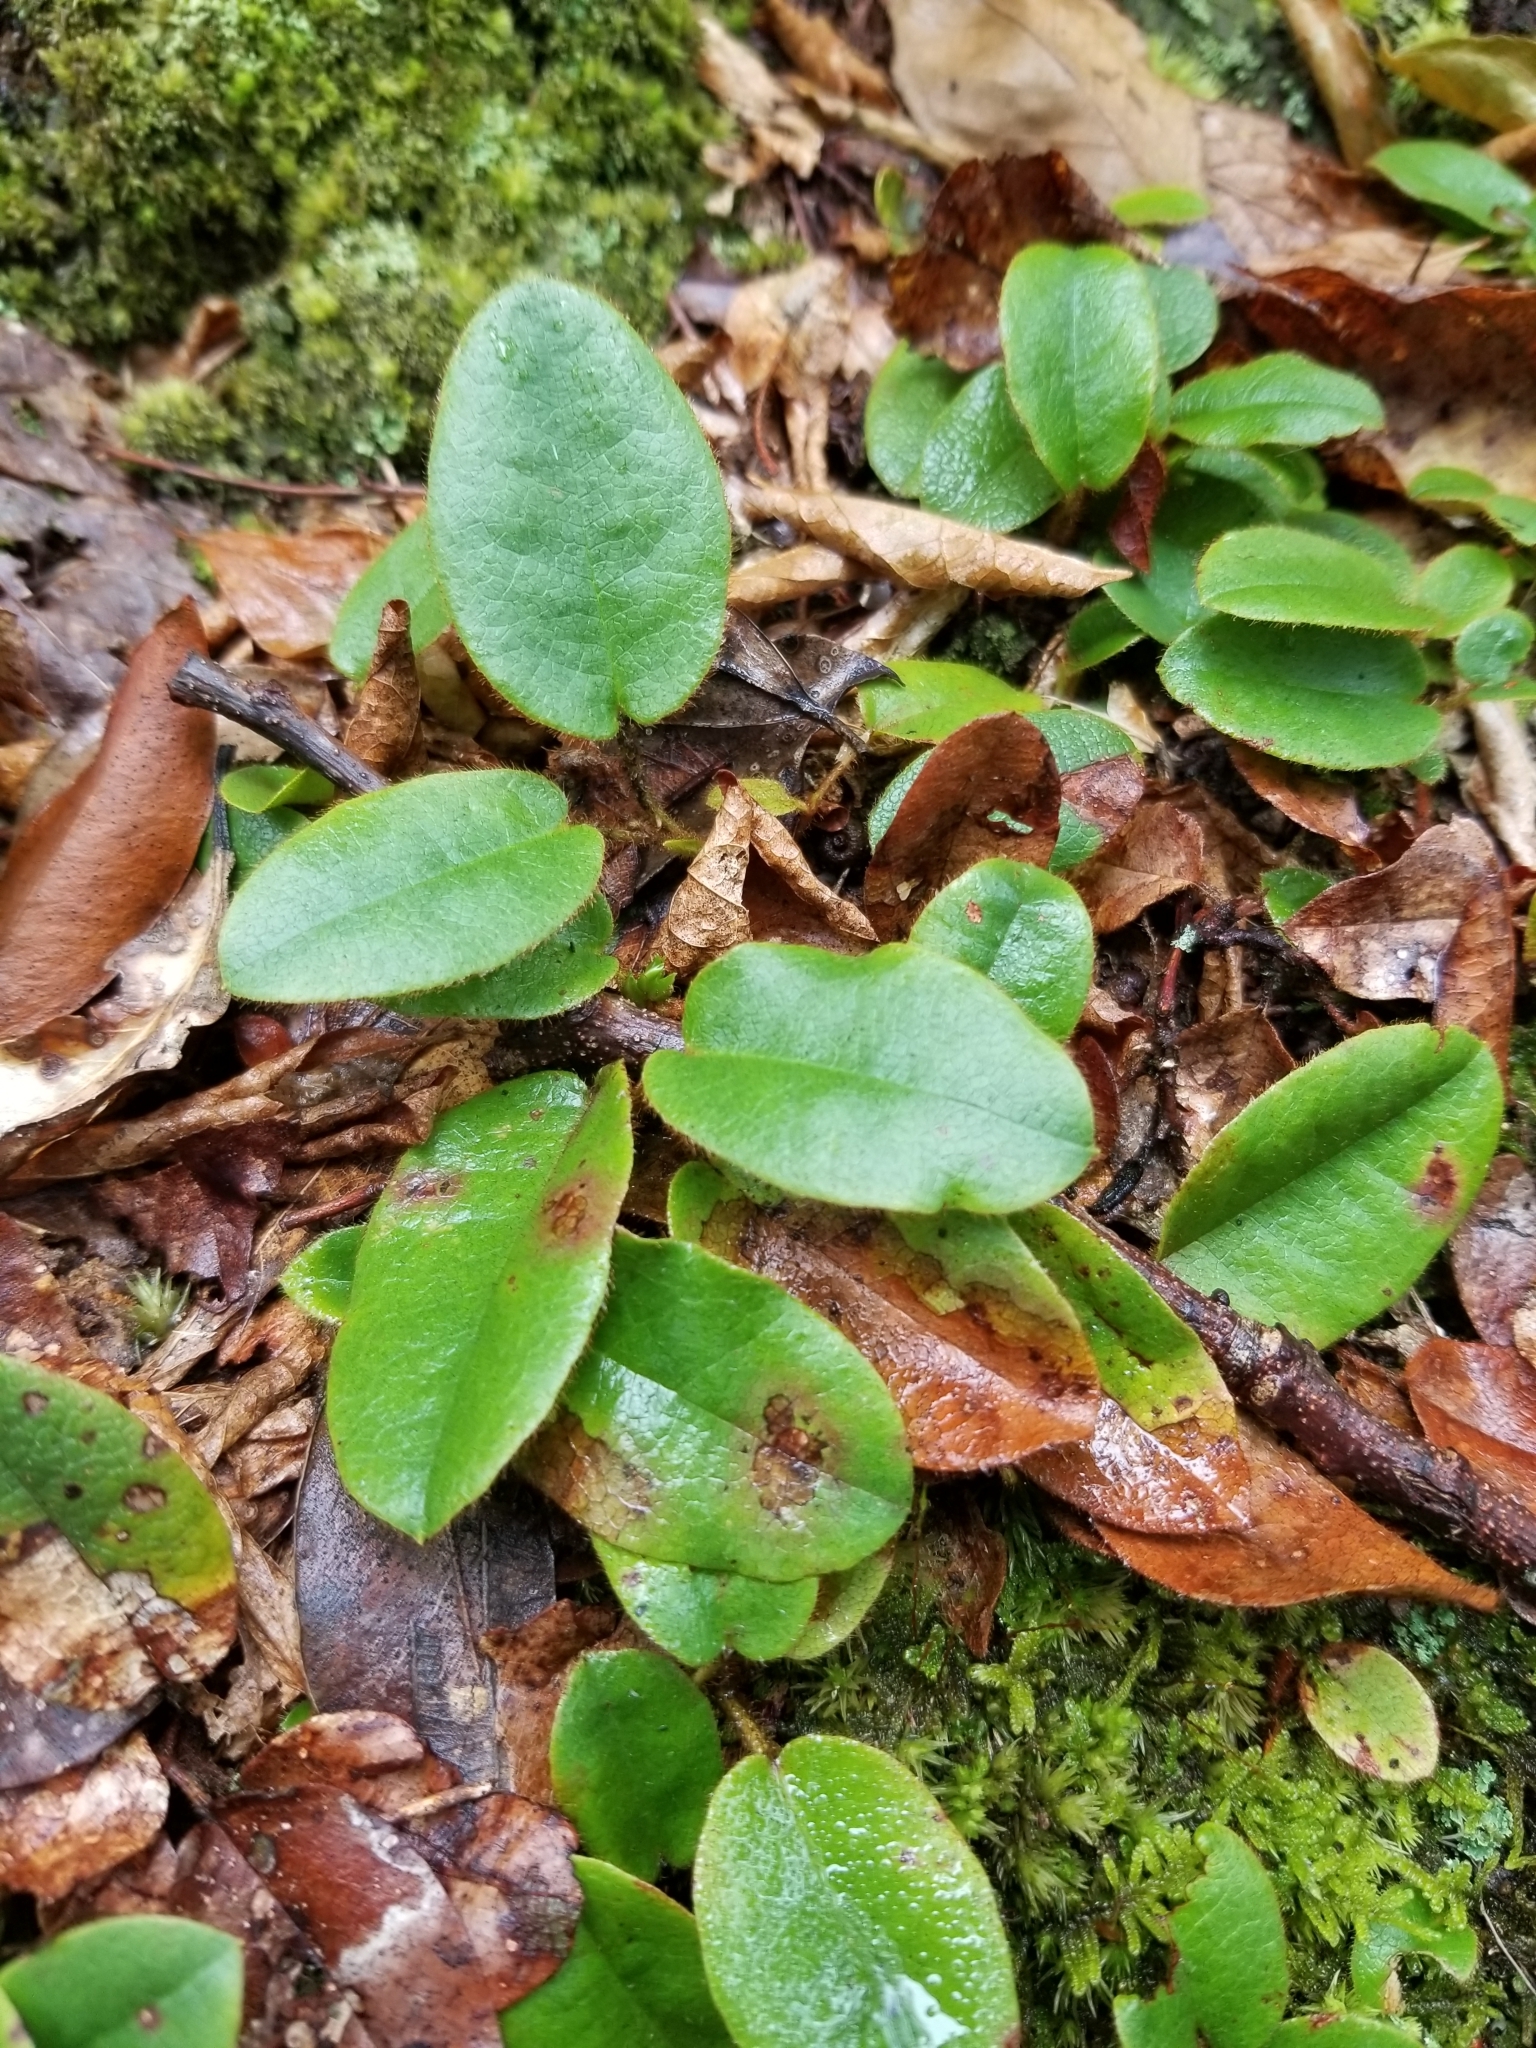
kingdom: Plantae
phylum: Tracheophyta
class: Magnoliopsida
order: Ericales
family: Ericaceae
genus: Epigaea
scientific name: Epigaea repens
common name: Gravelroot
